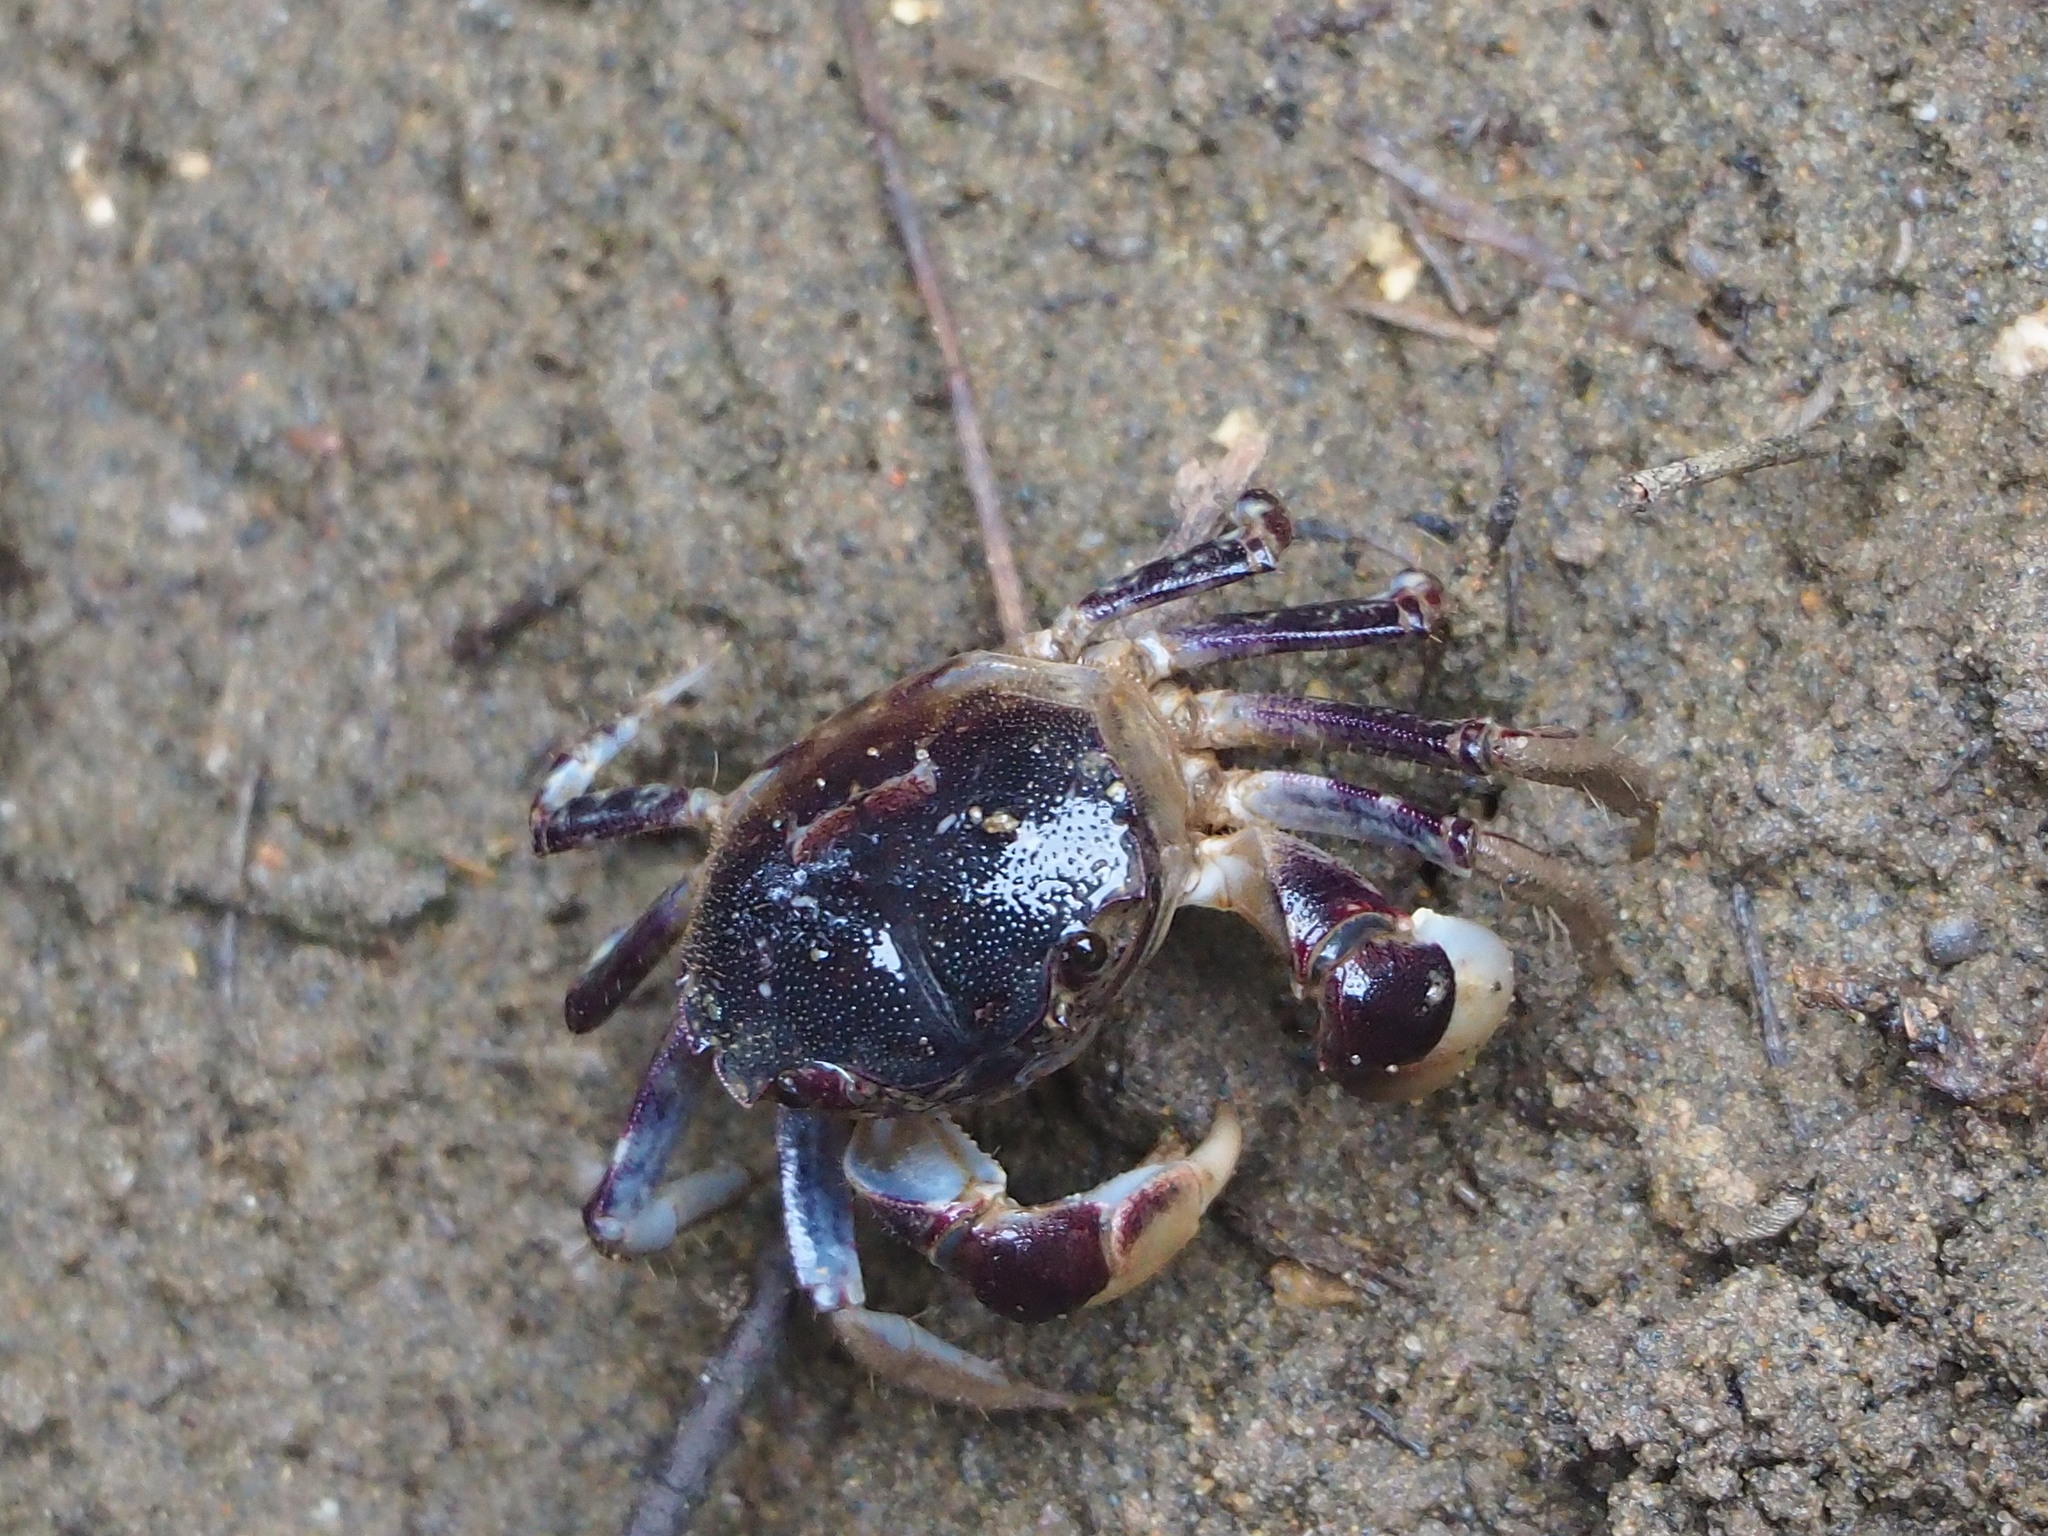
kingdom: Animalia
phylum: Arthropoda
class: Malacostraca
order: Decapoda
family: Varunidae
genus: Pseudohelice
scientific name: Pseudohelice subquadrata
